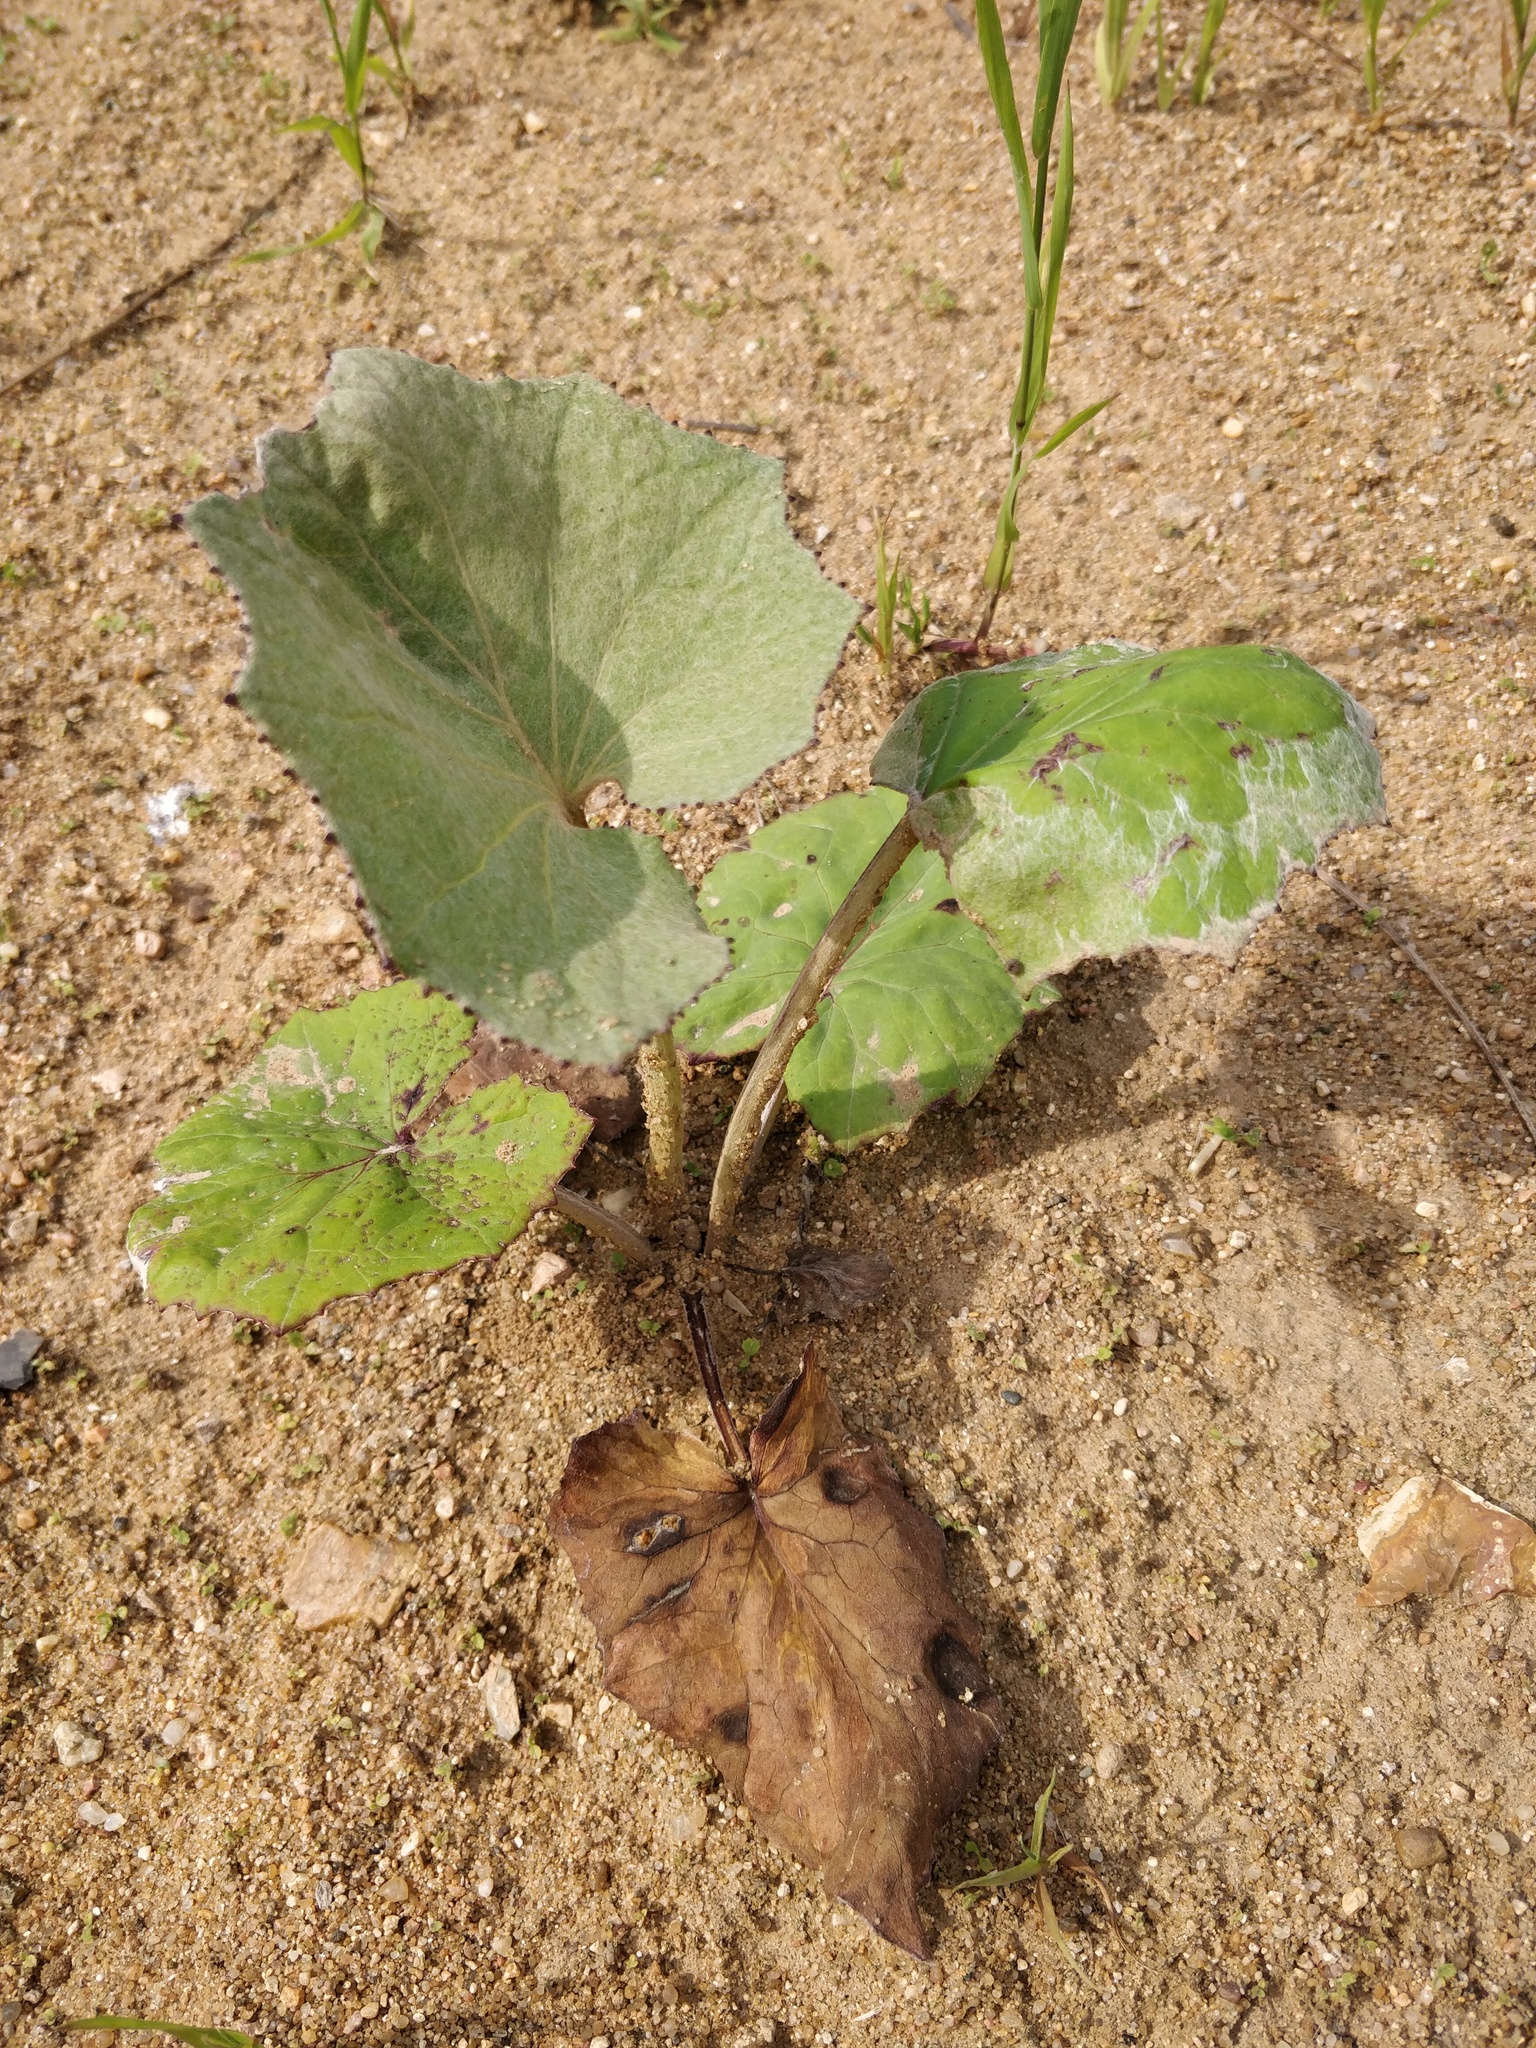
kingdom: Plantae
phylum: Tracheophyta
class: Magnoliopsida
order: Asterales
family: Asteraceae
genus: Tussilago
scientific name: Tussilago farfara
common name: Coltsfoot
